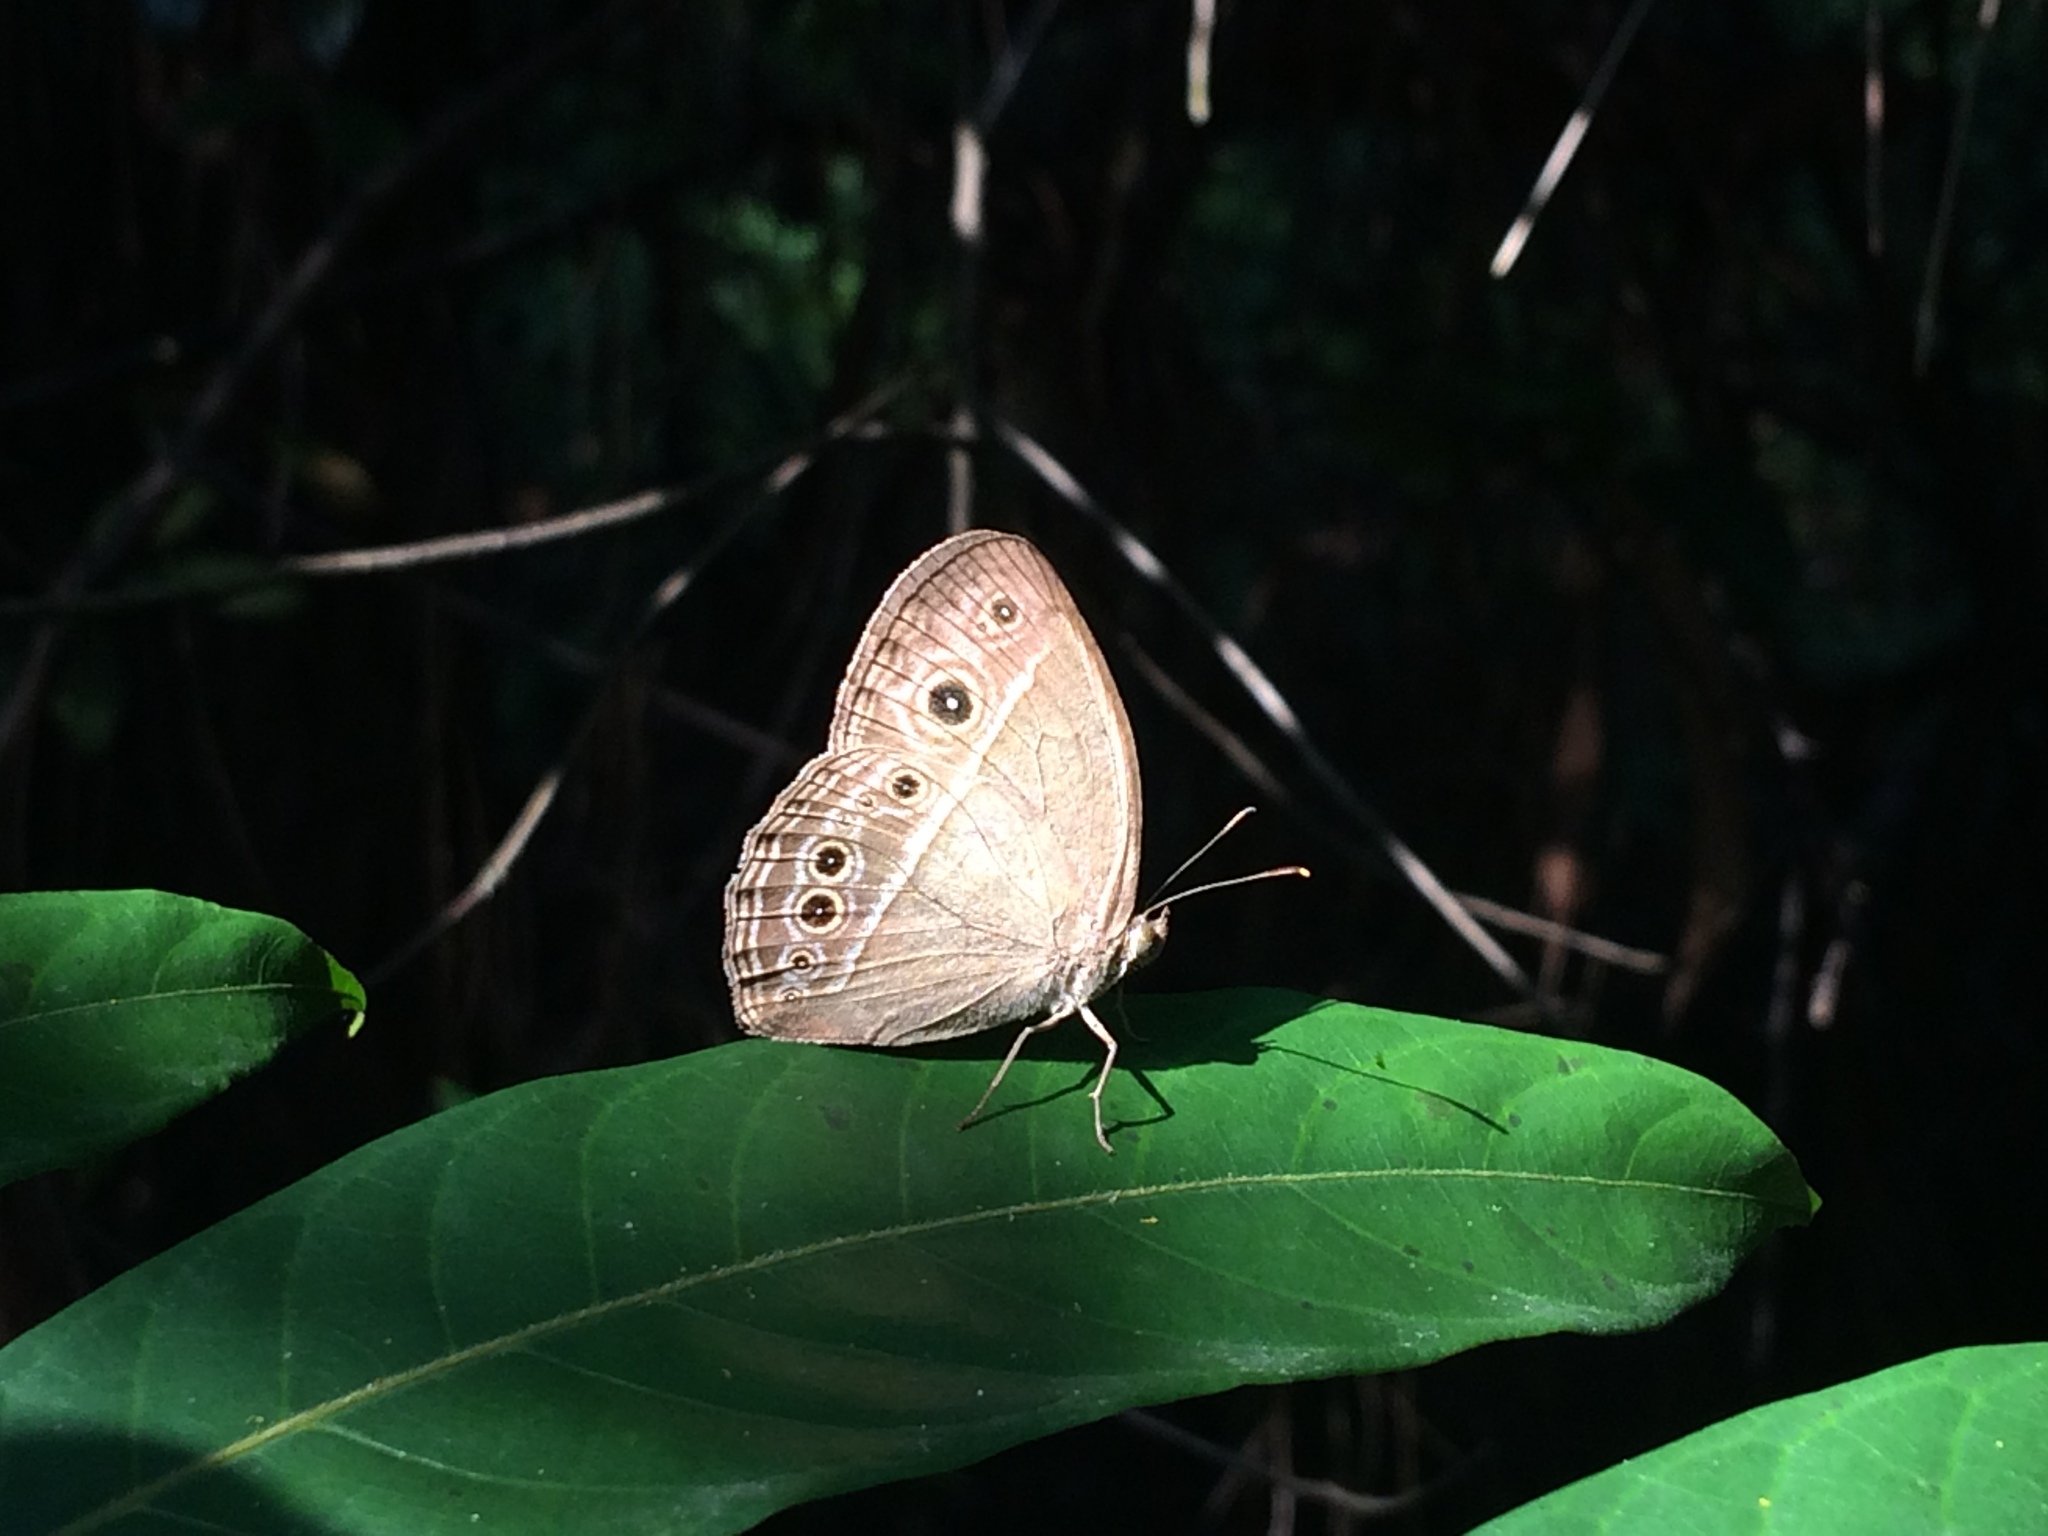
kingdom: Animalia
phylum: Arthropoda
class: Insecta
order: Lepidoptera
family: Nymphalidae
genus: Mycalesis
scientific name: Mycalesis perseoides
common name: Burmese bushbrown
